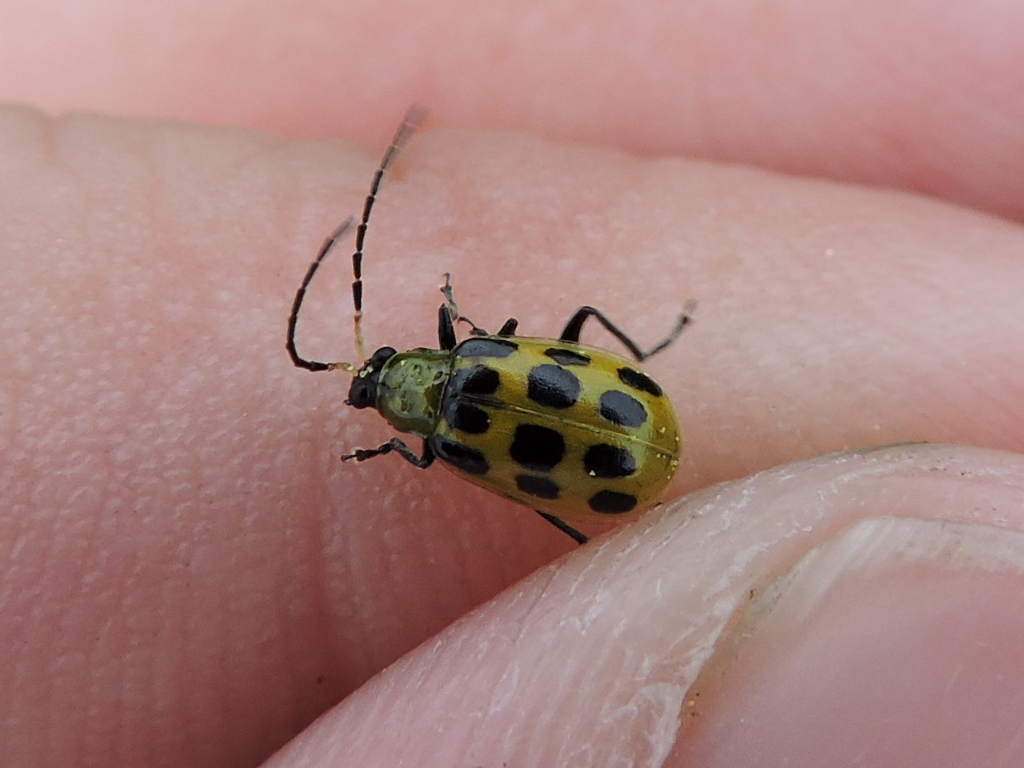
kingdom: Animalia
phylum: Arthropoda
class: Insecta
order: Coleoptera
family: Chrysomelidae
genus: Diabrotica
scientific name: Diabrotica undecimpunctata
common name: Spotted cucumber beetle
